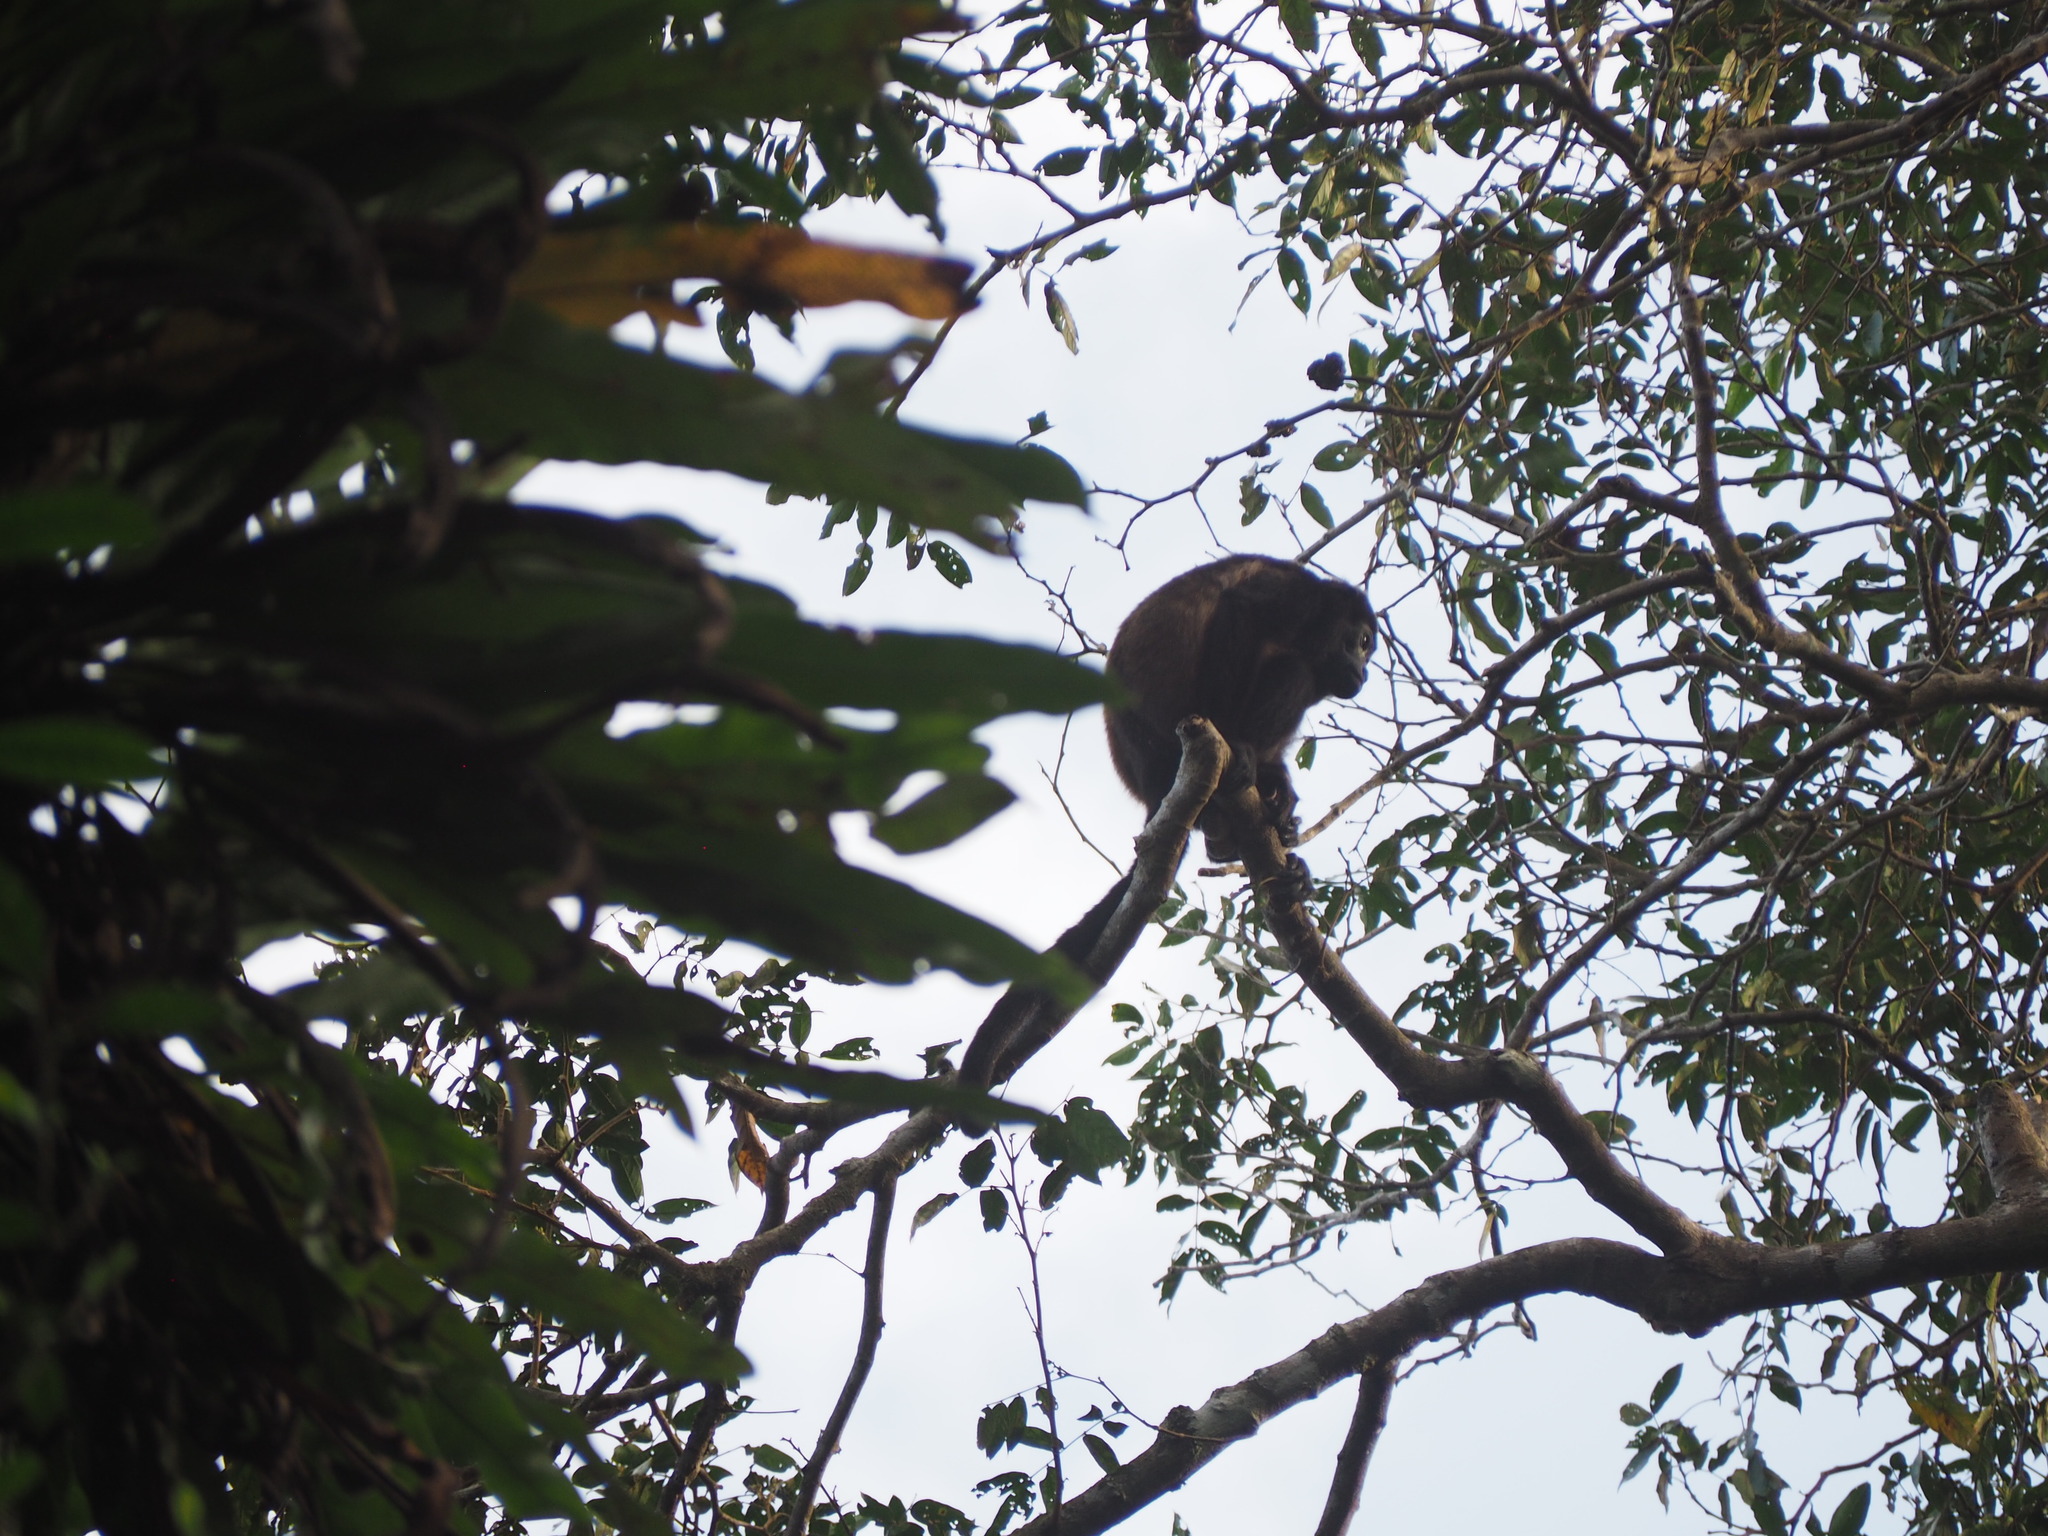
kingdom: Animalia
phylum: Chordata
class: Mammalia
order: Primates
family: Atelidae
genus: Alouatta
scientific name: Alouatta palliata
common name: Mantled howler
